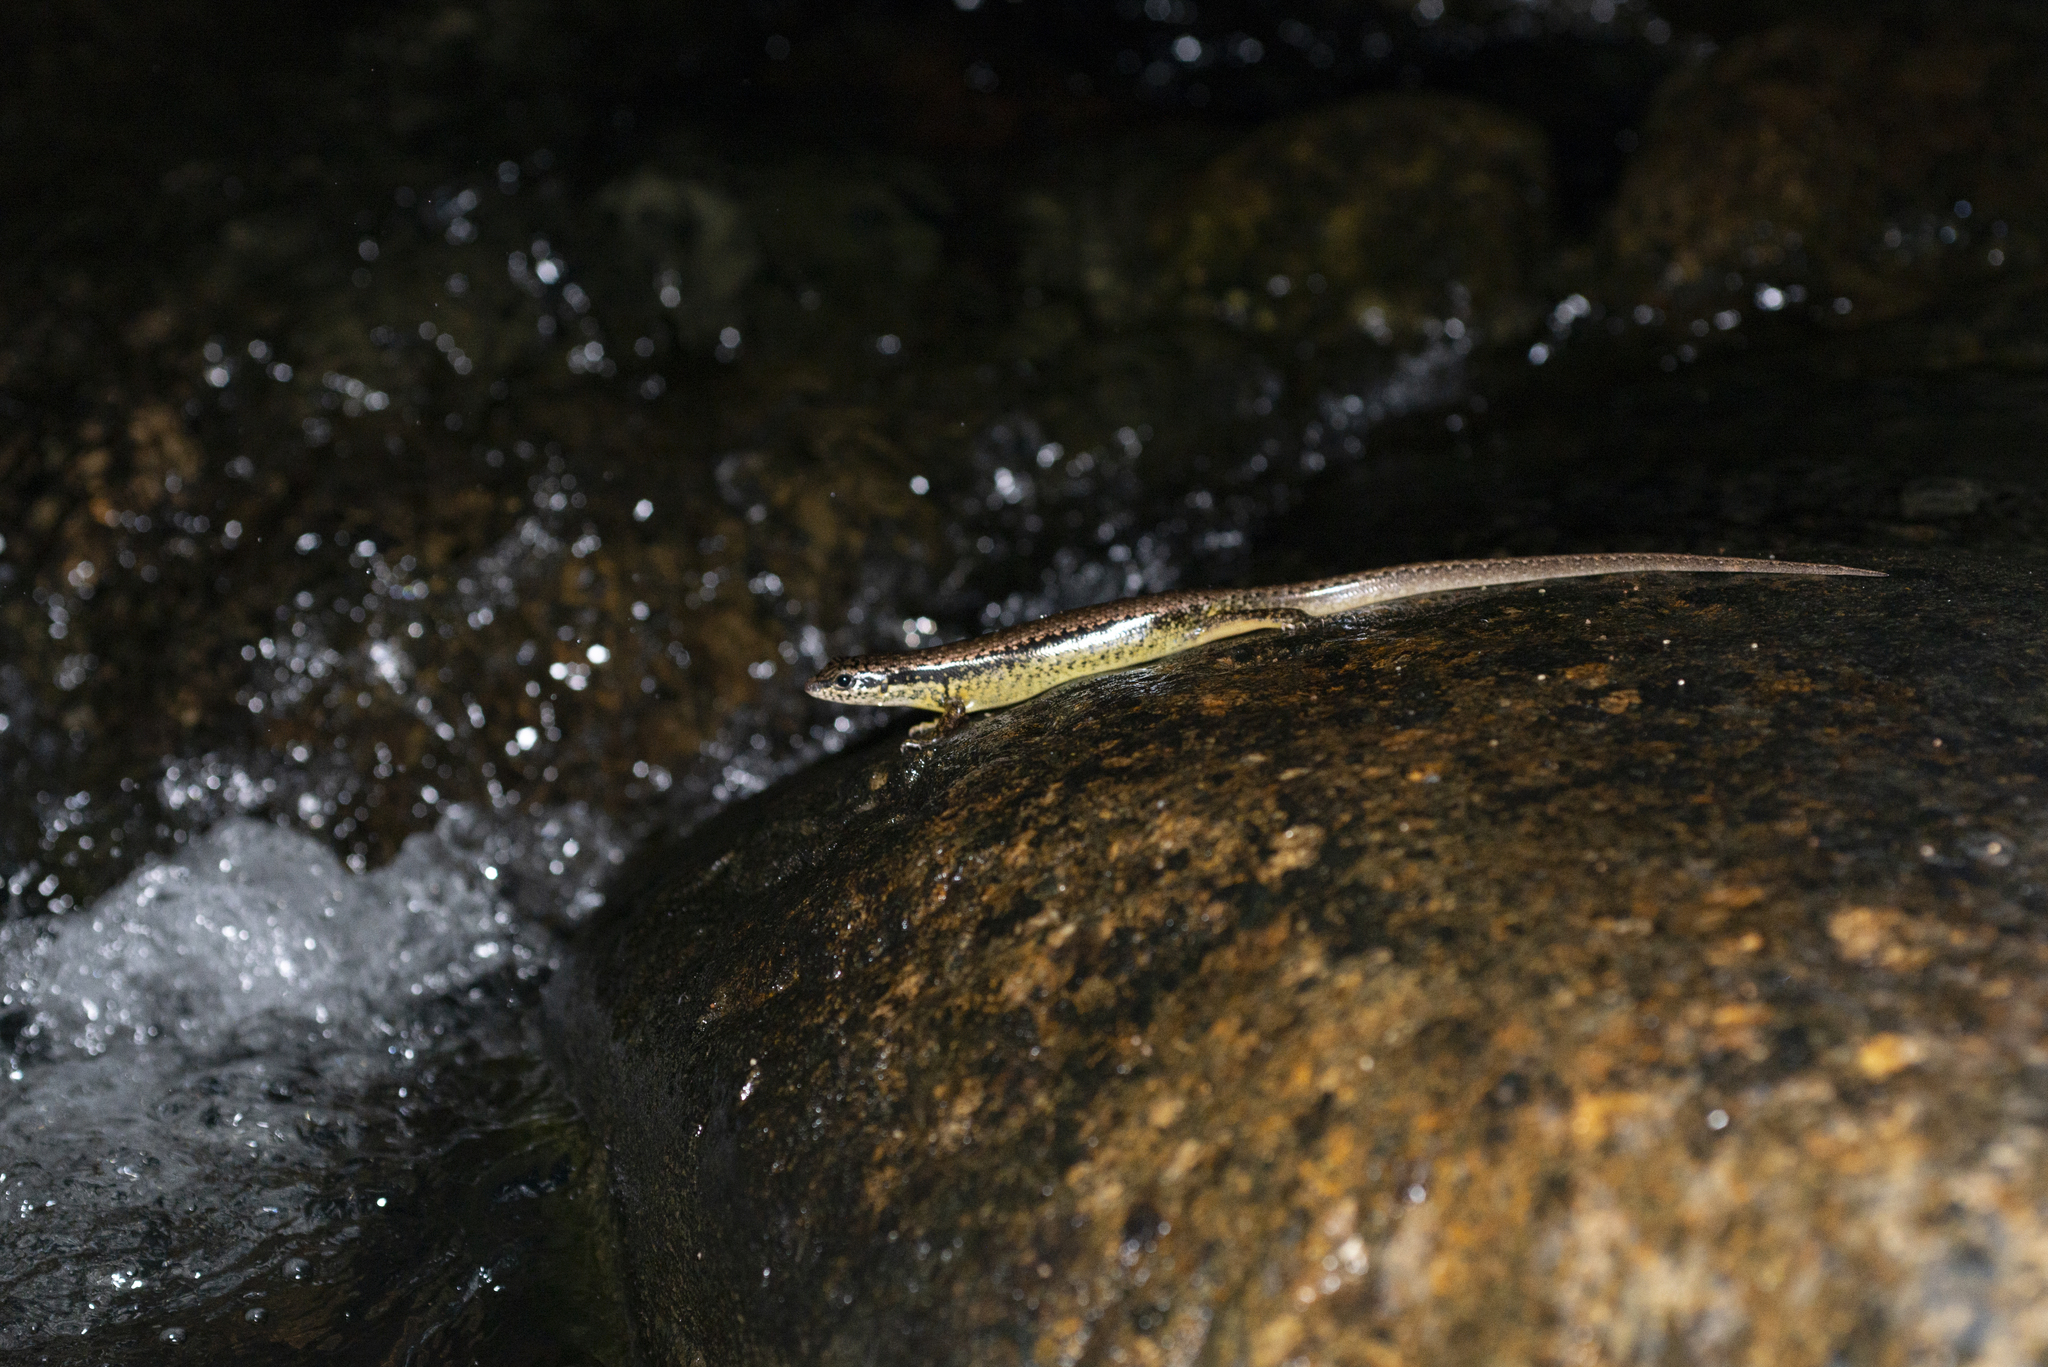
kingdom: Animalia
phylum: Chordata
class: Squamata
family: Scincidae
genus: Sphenomorphus
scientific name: Sphenomorphus indicus
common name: Himalayan forest skink
